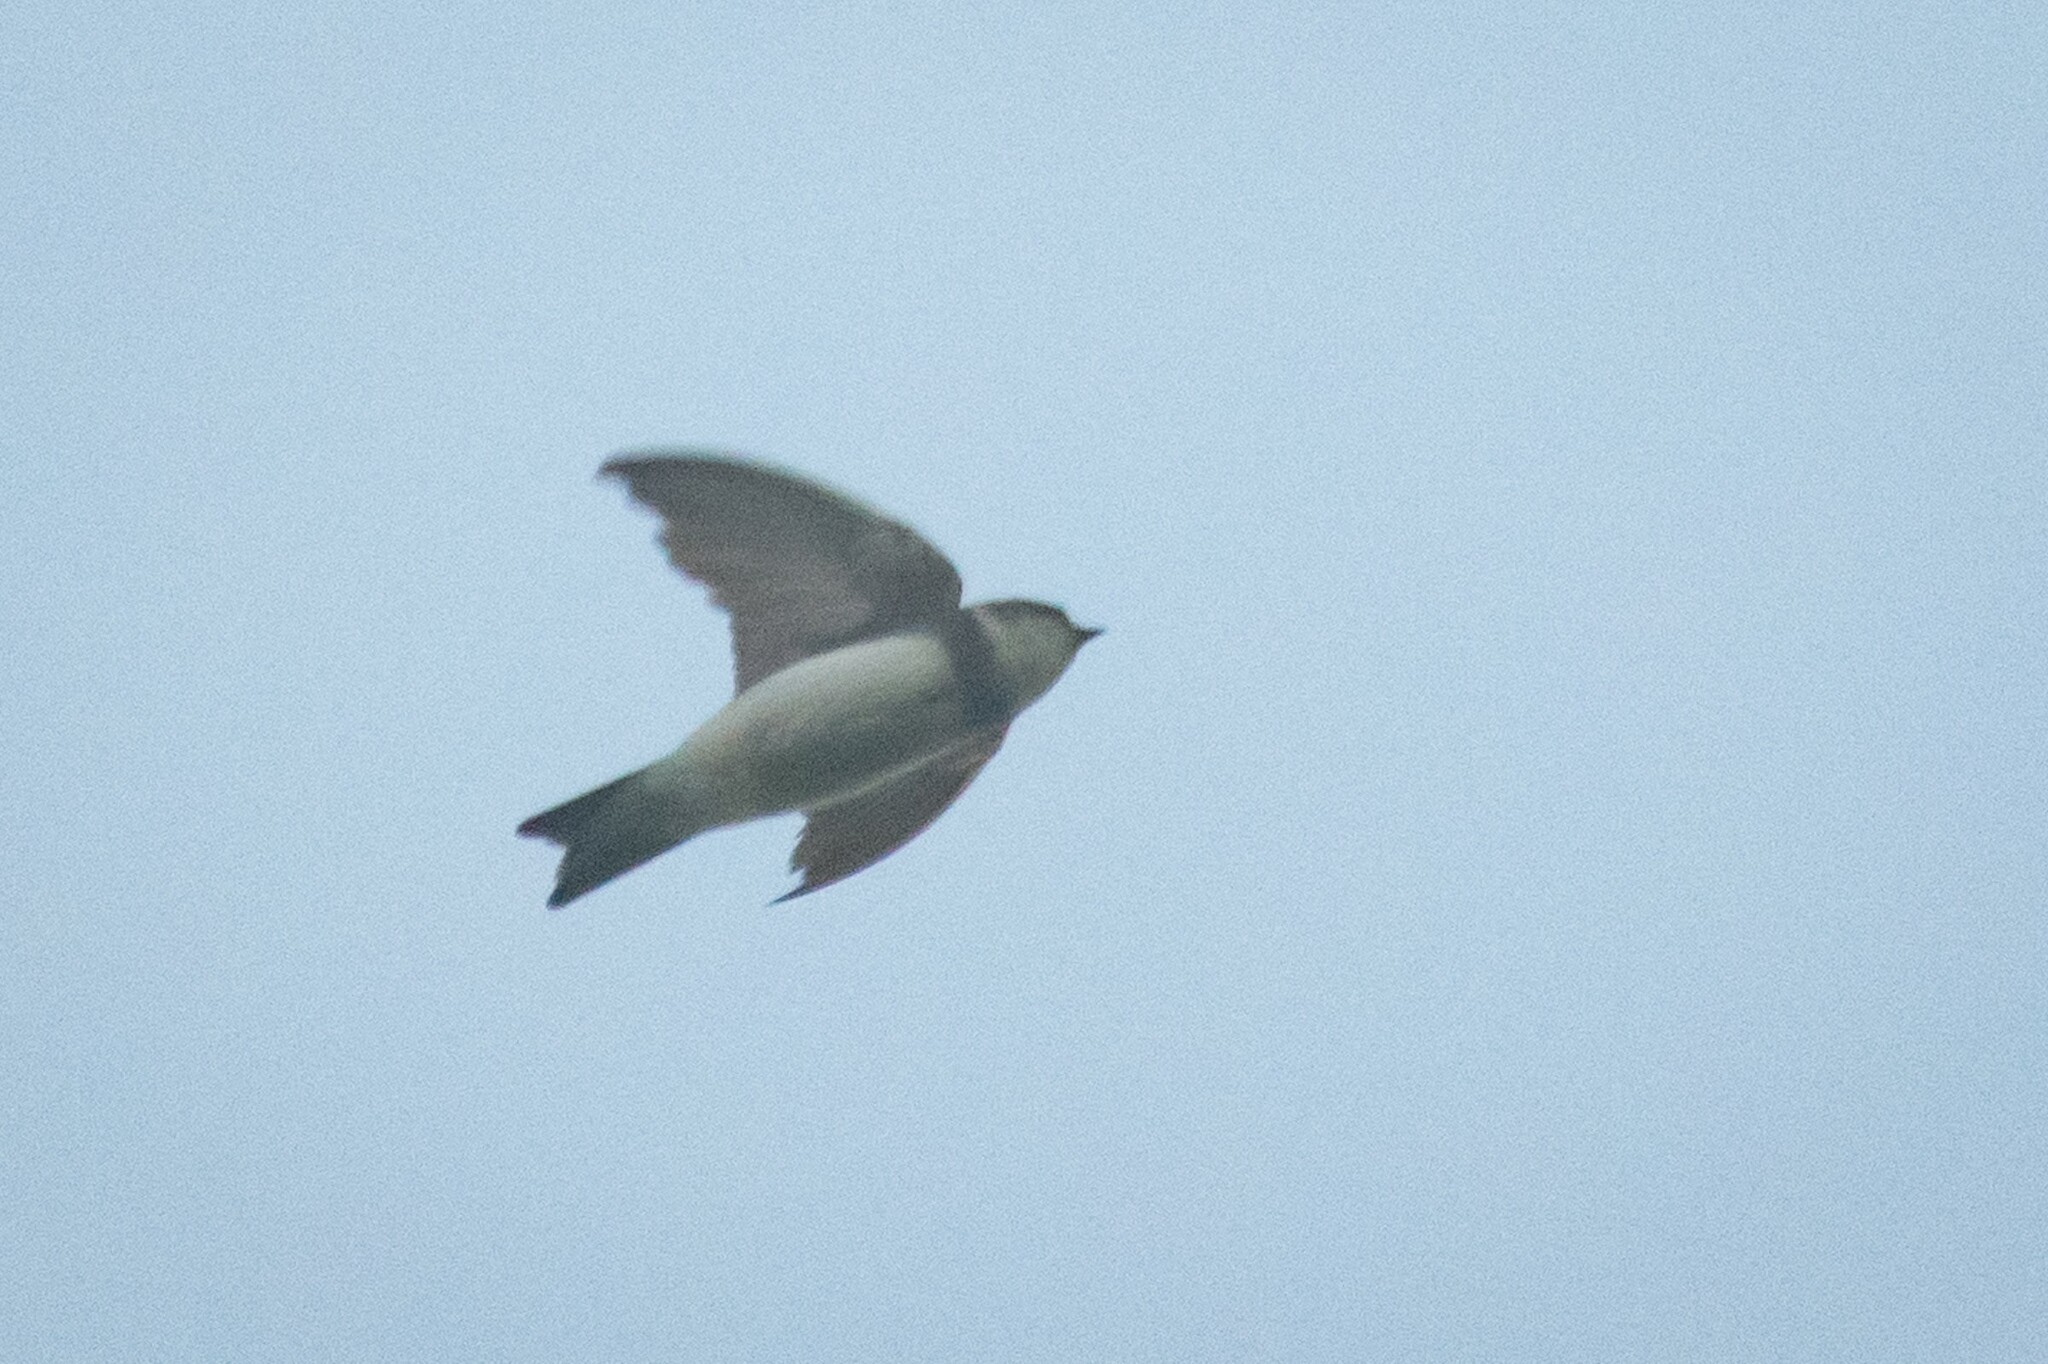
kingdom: Animalia
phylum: Chordata
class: Aves
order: Passeriformes
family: Hirundinidae
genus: Riparia
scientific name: Riparia riparia
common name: Sand martin
